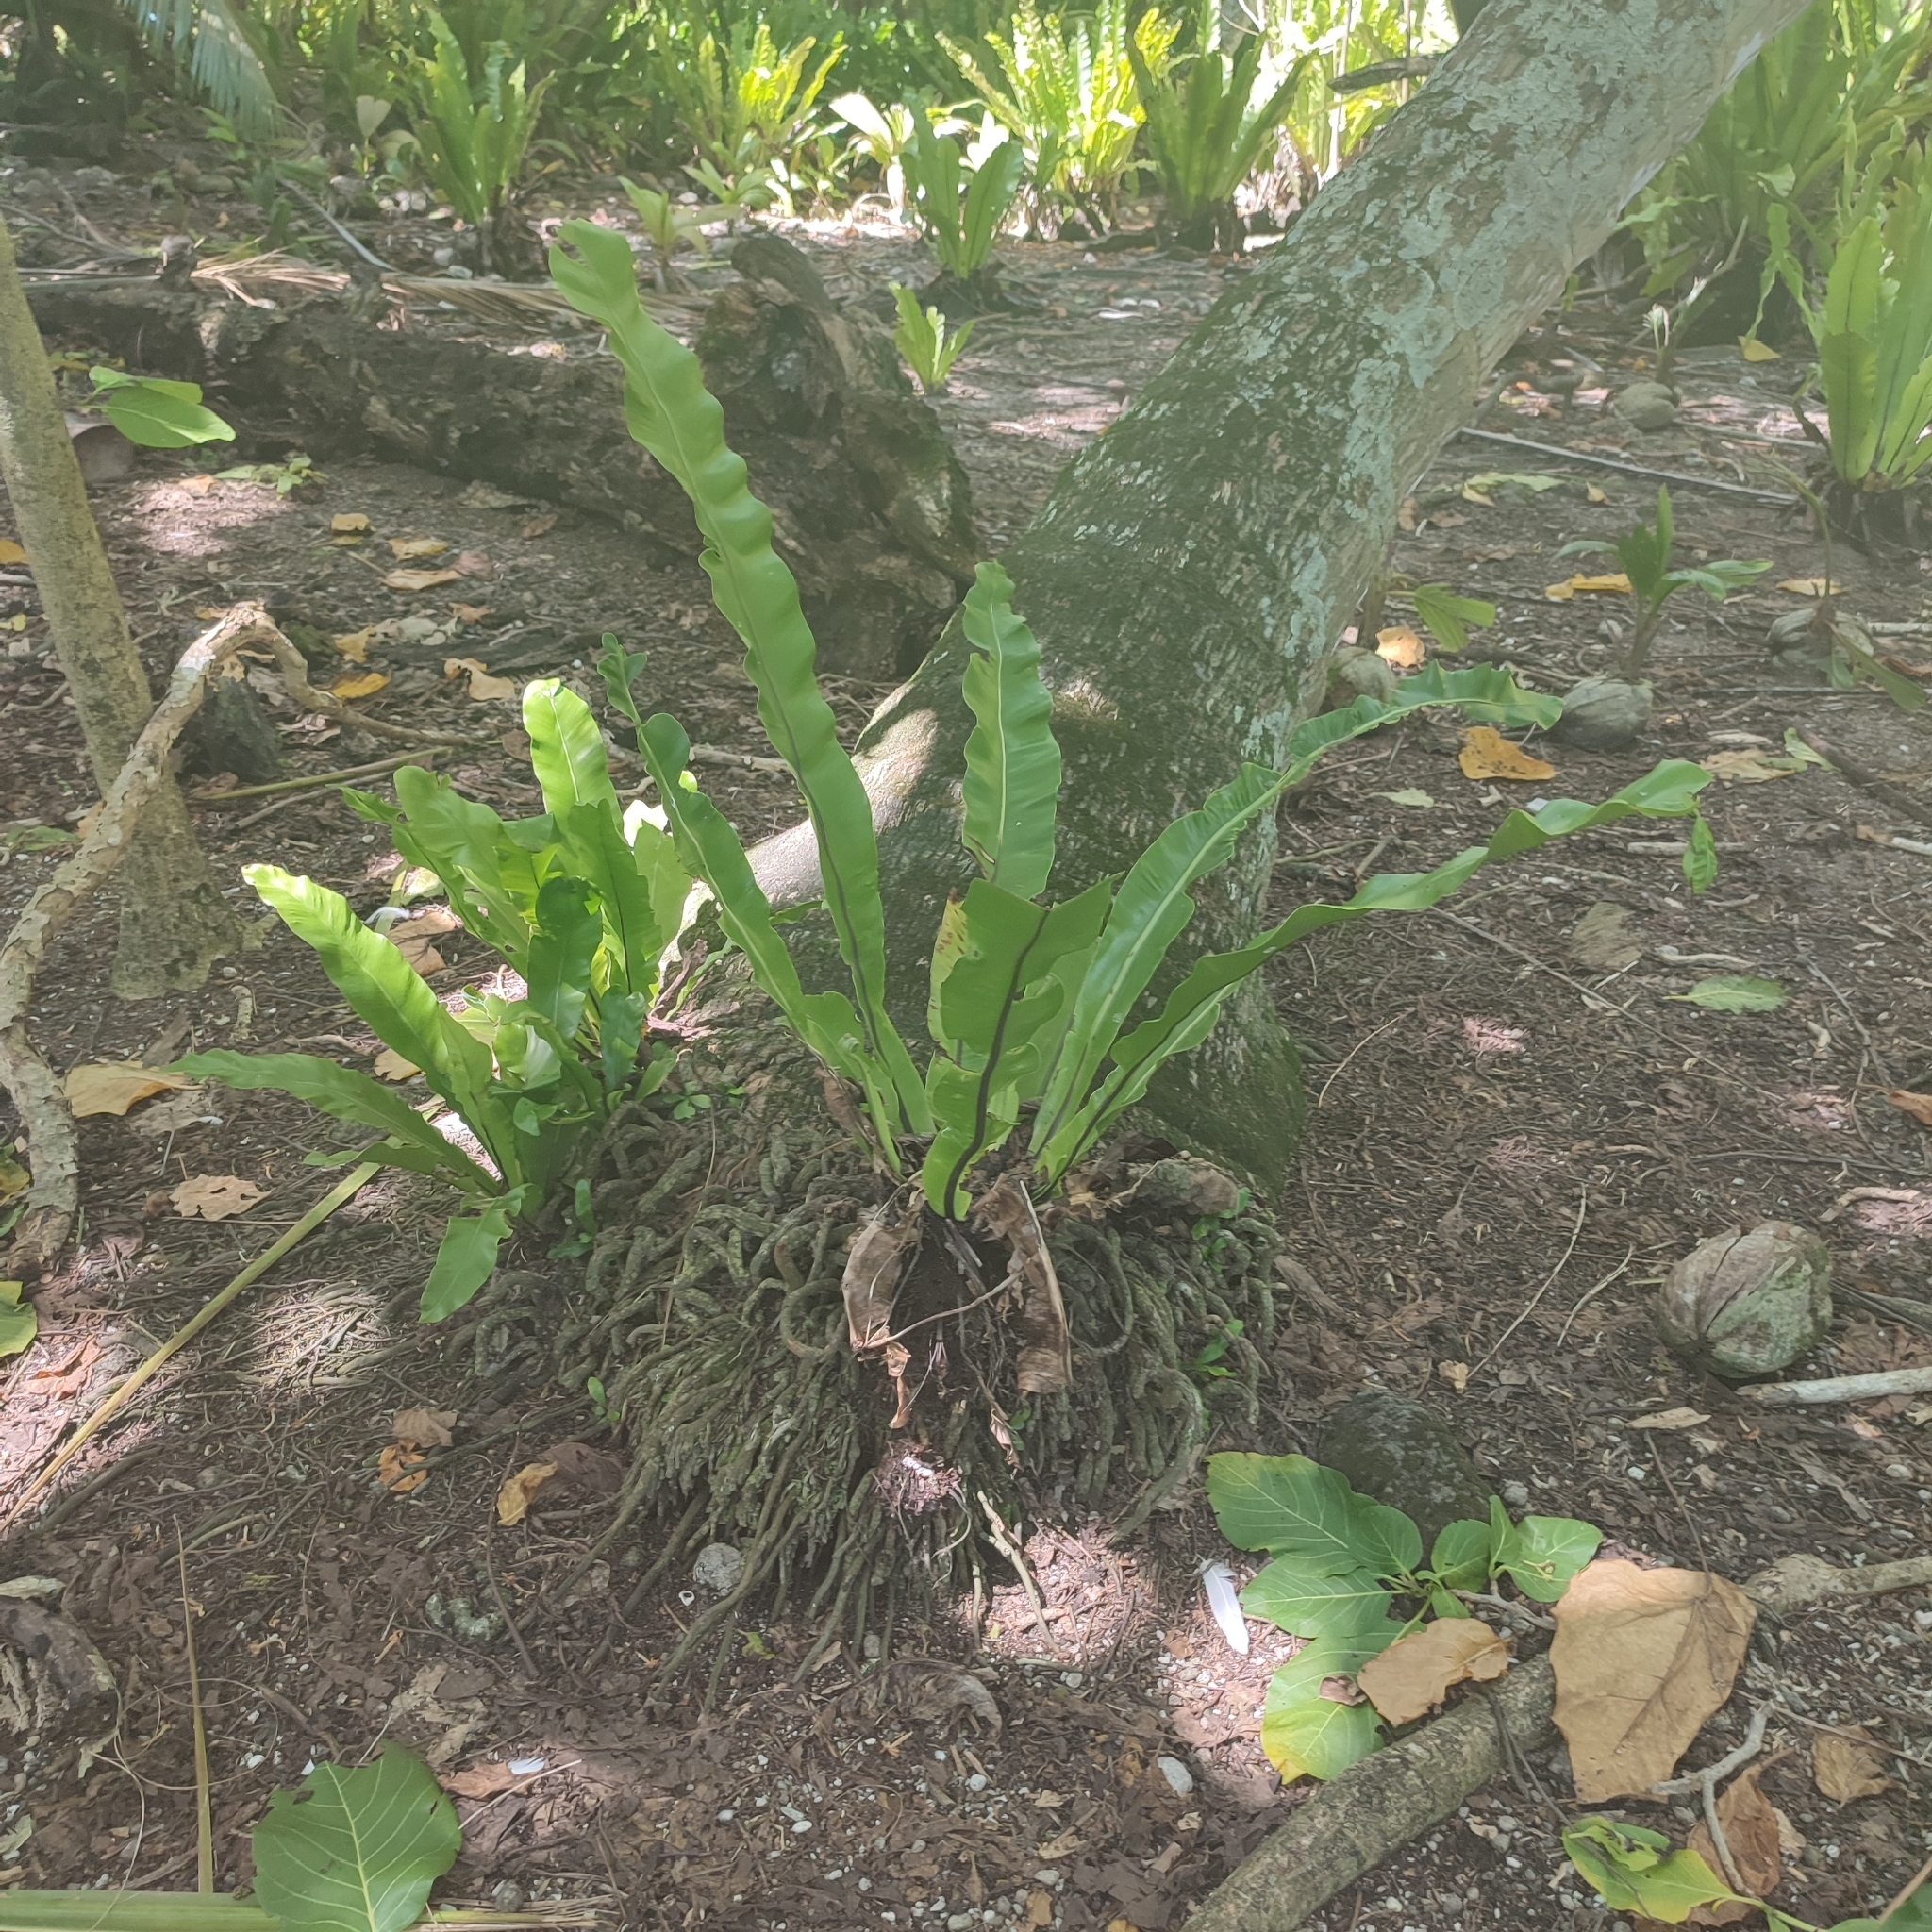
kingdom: Plantae
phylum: Tracheophyta
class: Polypodiopsida
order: Polypodiales
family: Aspleniaceae
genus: Asplenium
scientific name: Asplenium nidus
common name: Bird's-nest fern
